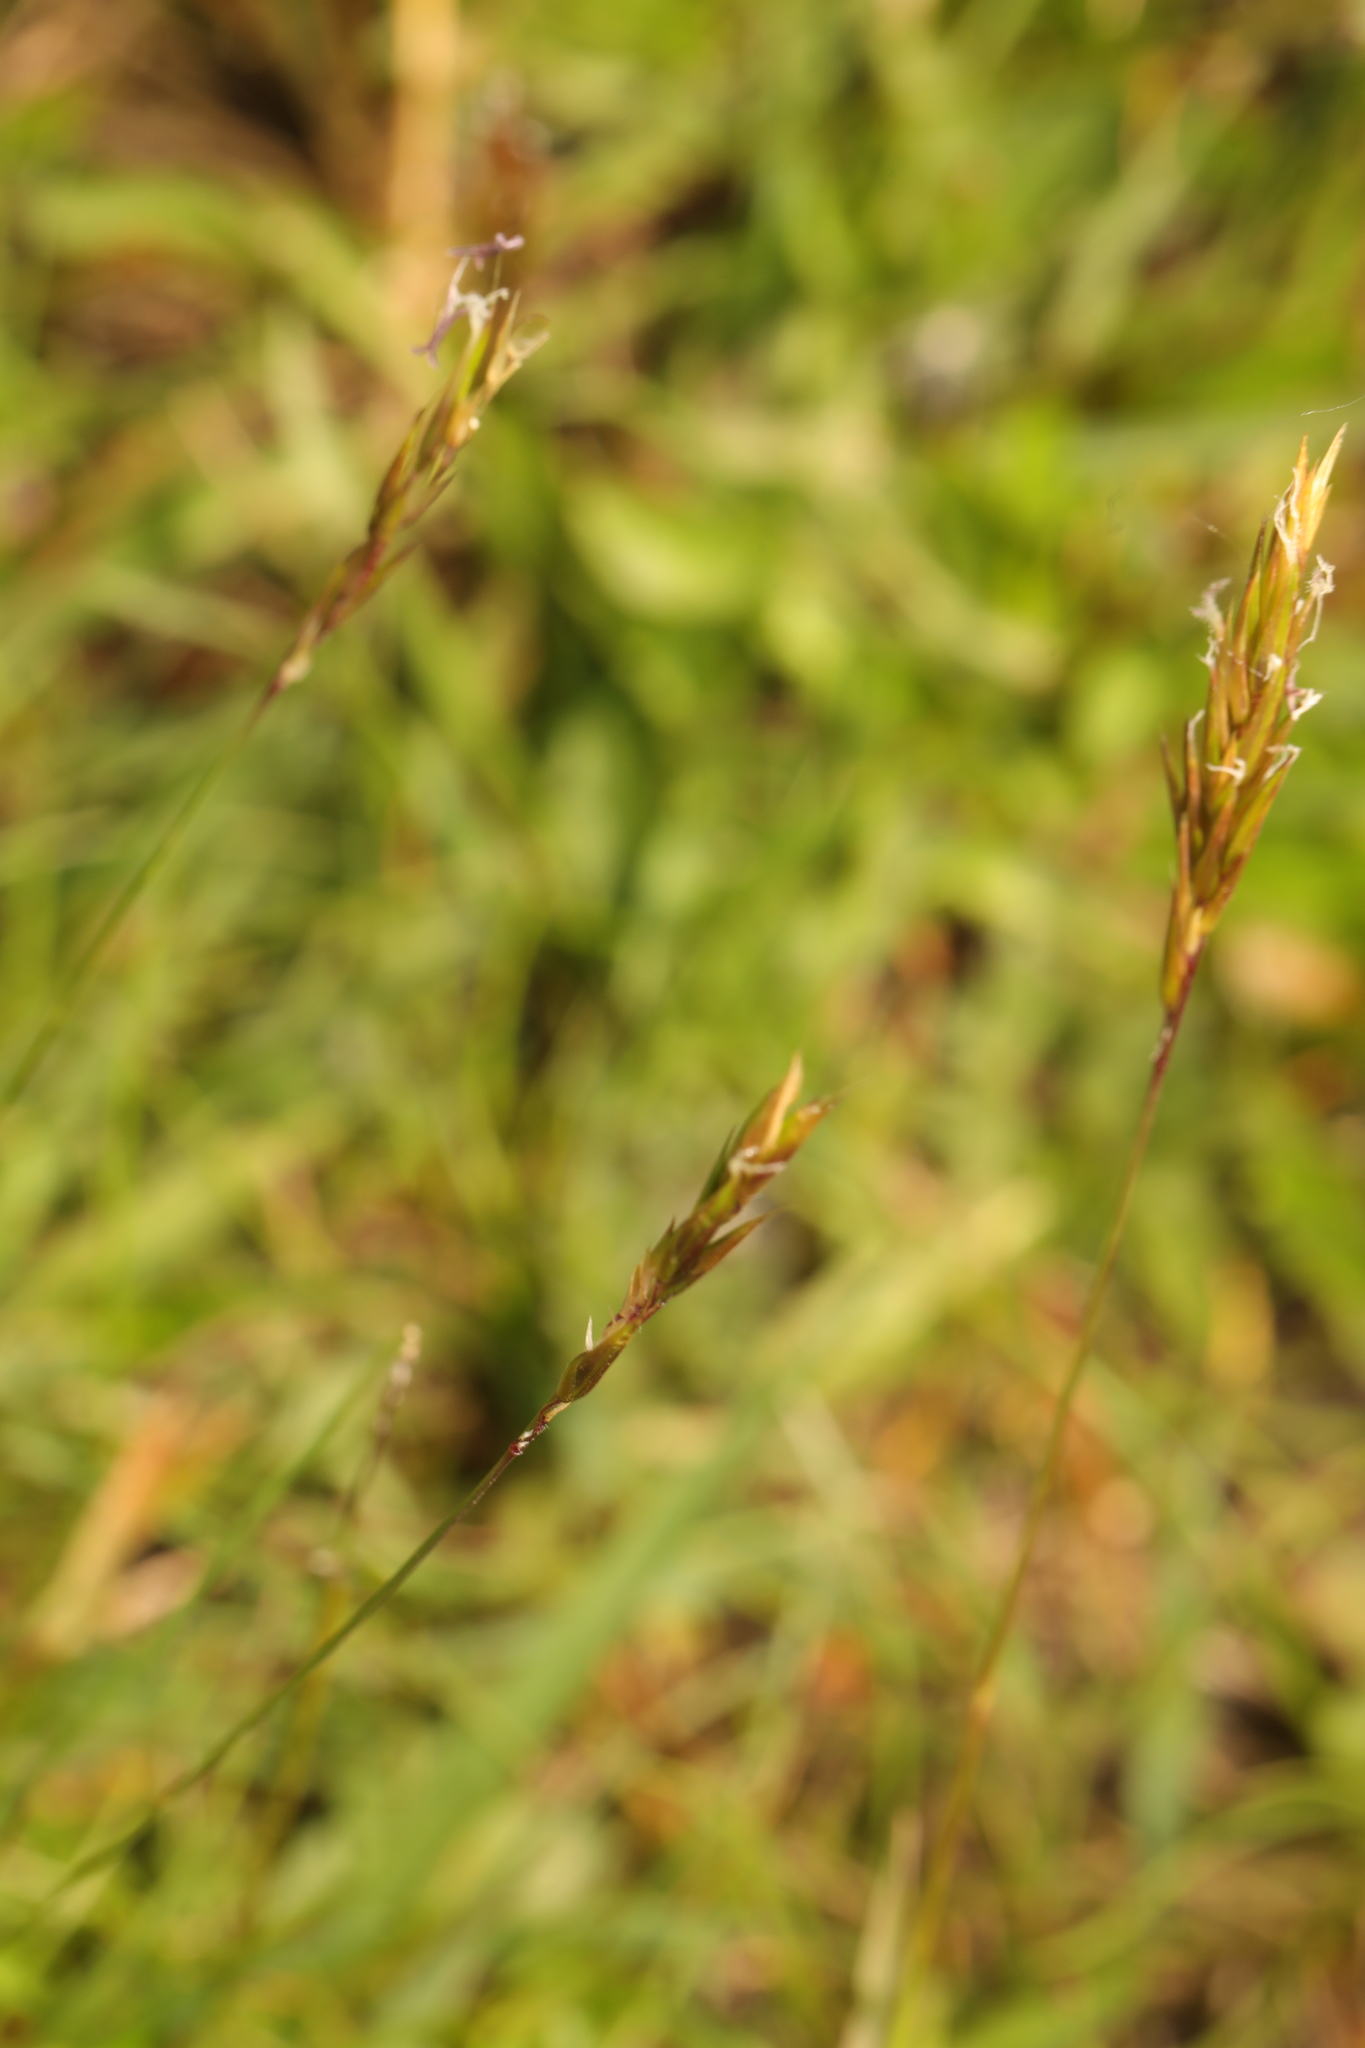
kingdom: Plantae
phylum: Tracheophyta
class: Liliopsida
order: Poales
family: Poaceae
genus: Anthoxanthum
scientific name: Anthoxanthum odoratum
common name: Sweet vernalgrass
